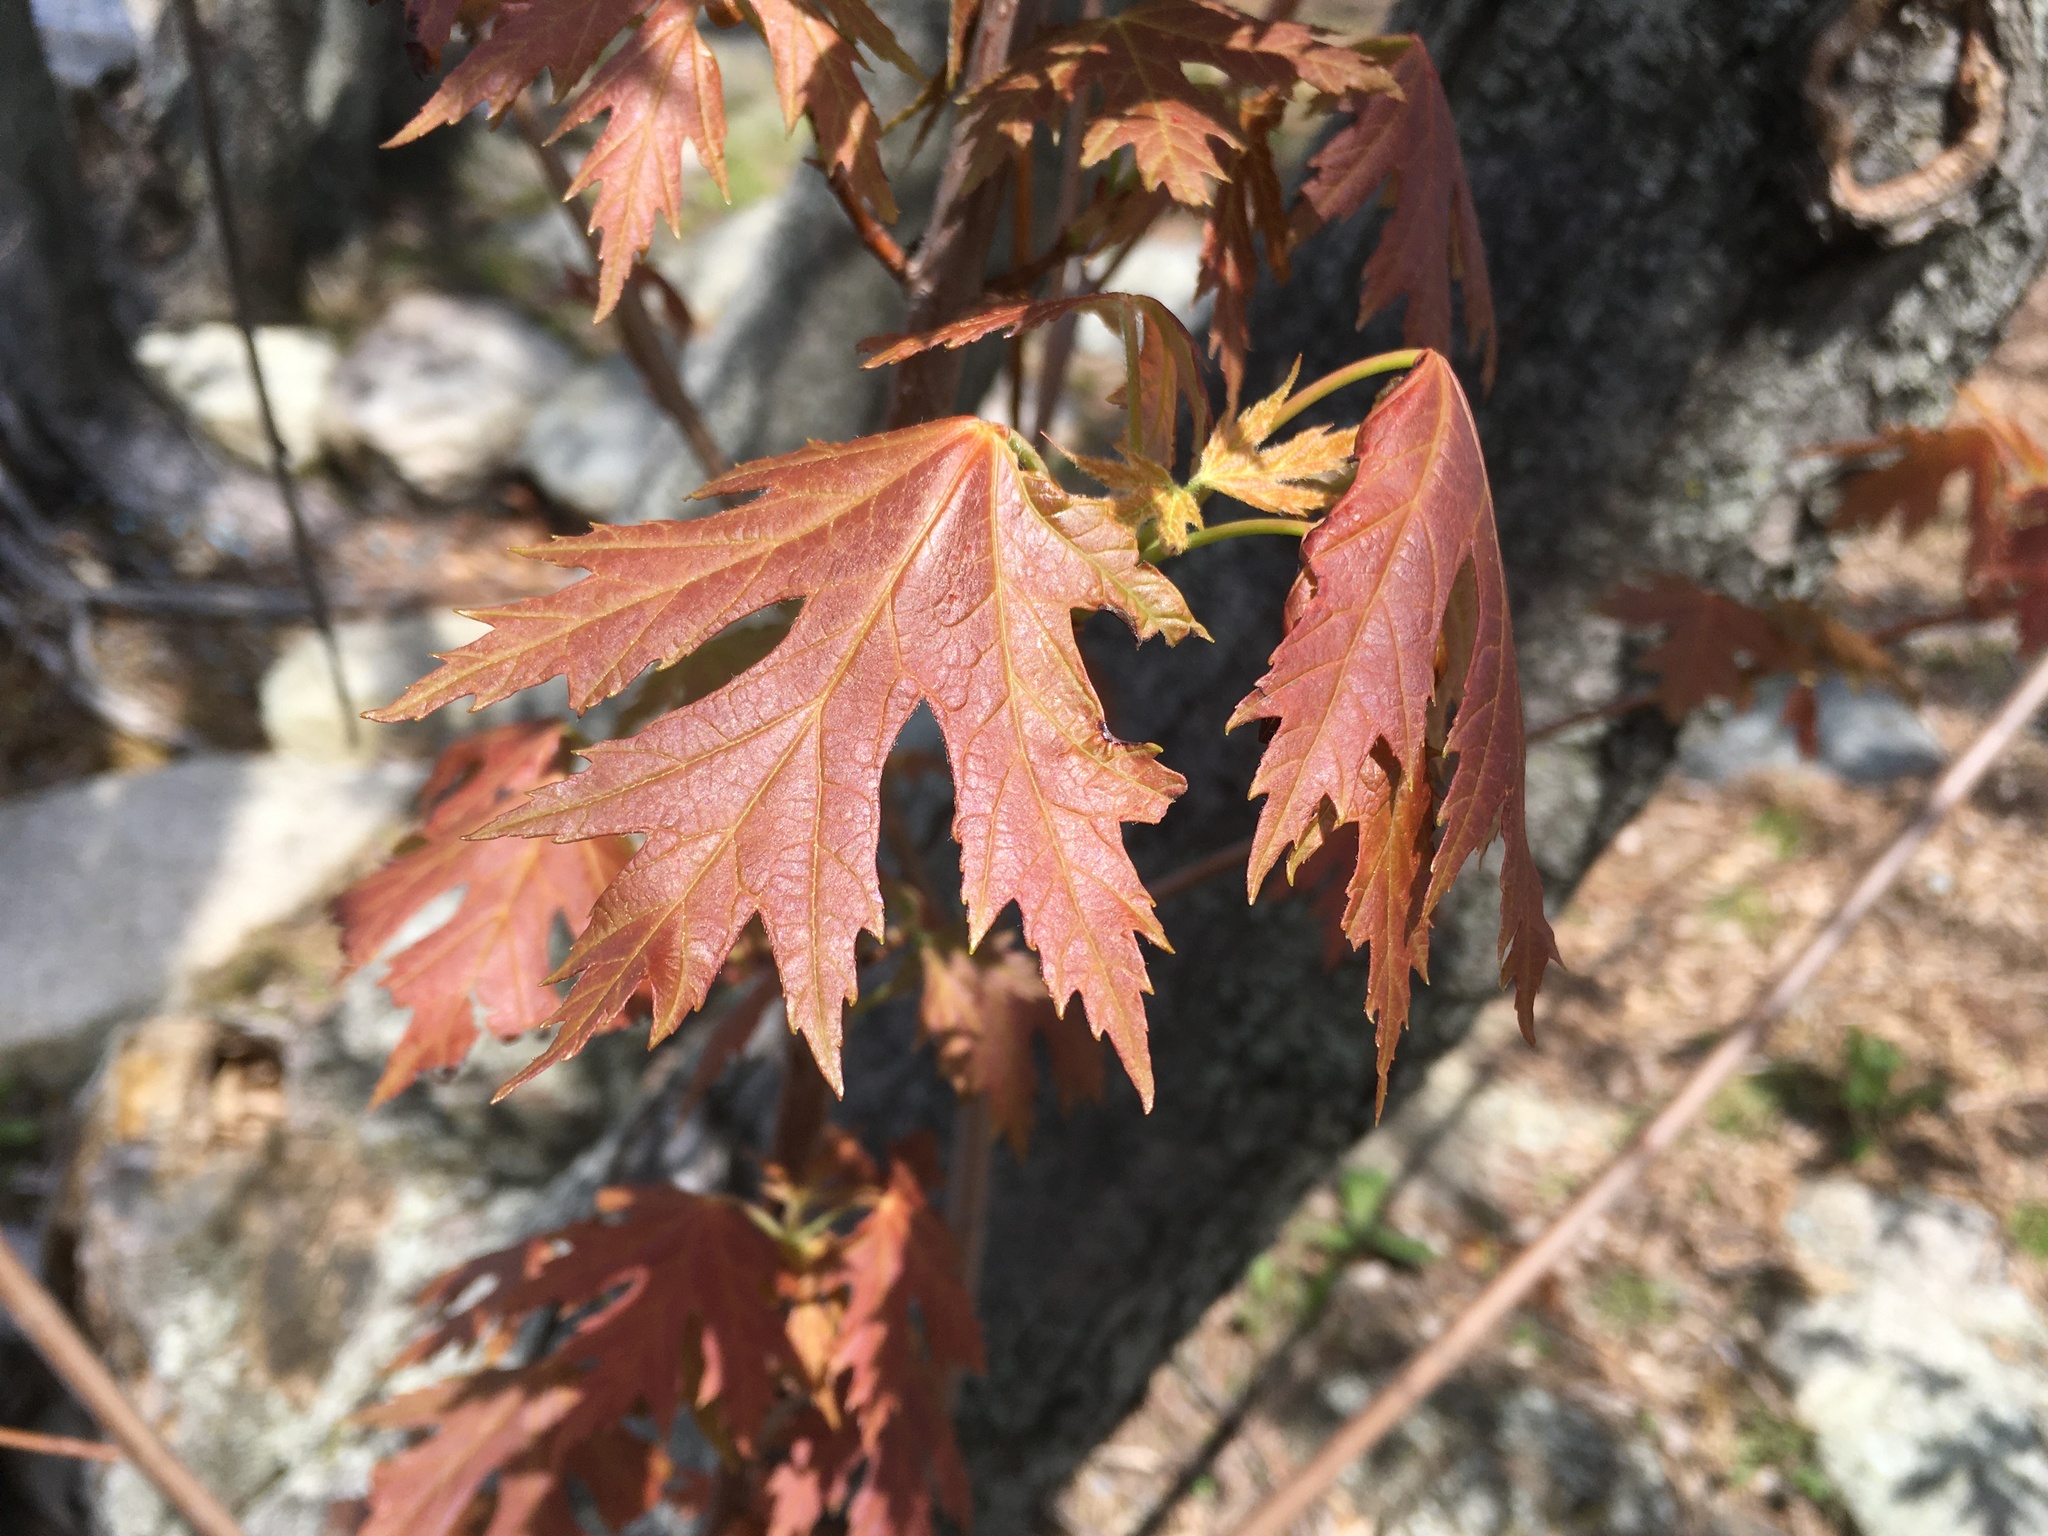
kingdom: Plantae
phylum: Tracheophyta
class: Magnoliopsida
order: Sapindales
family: Sapindaceae
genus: Acer
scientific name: Acer saccharinum
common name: Silver maple
